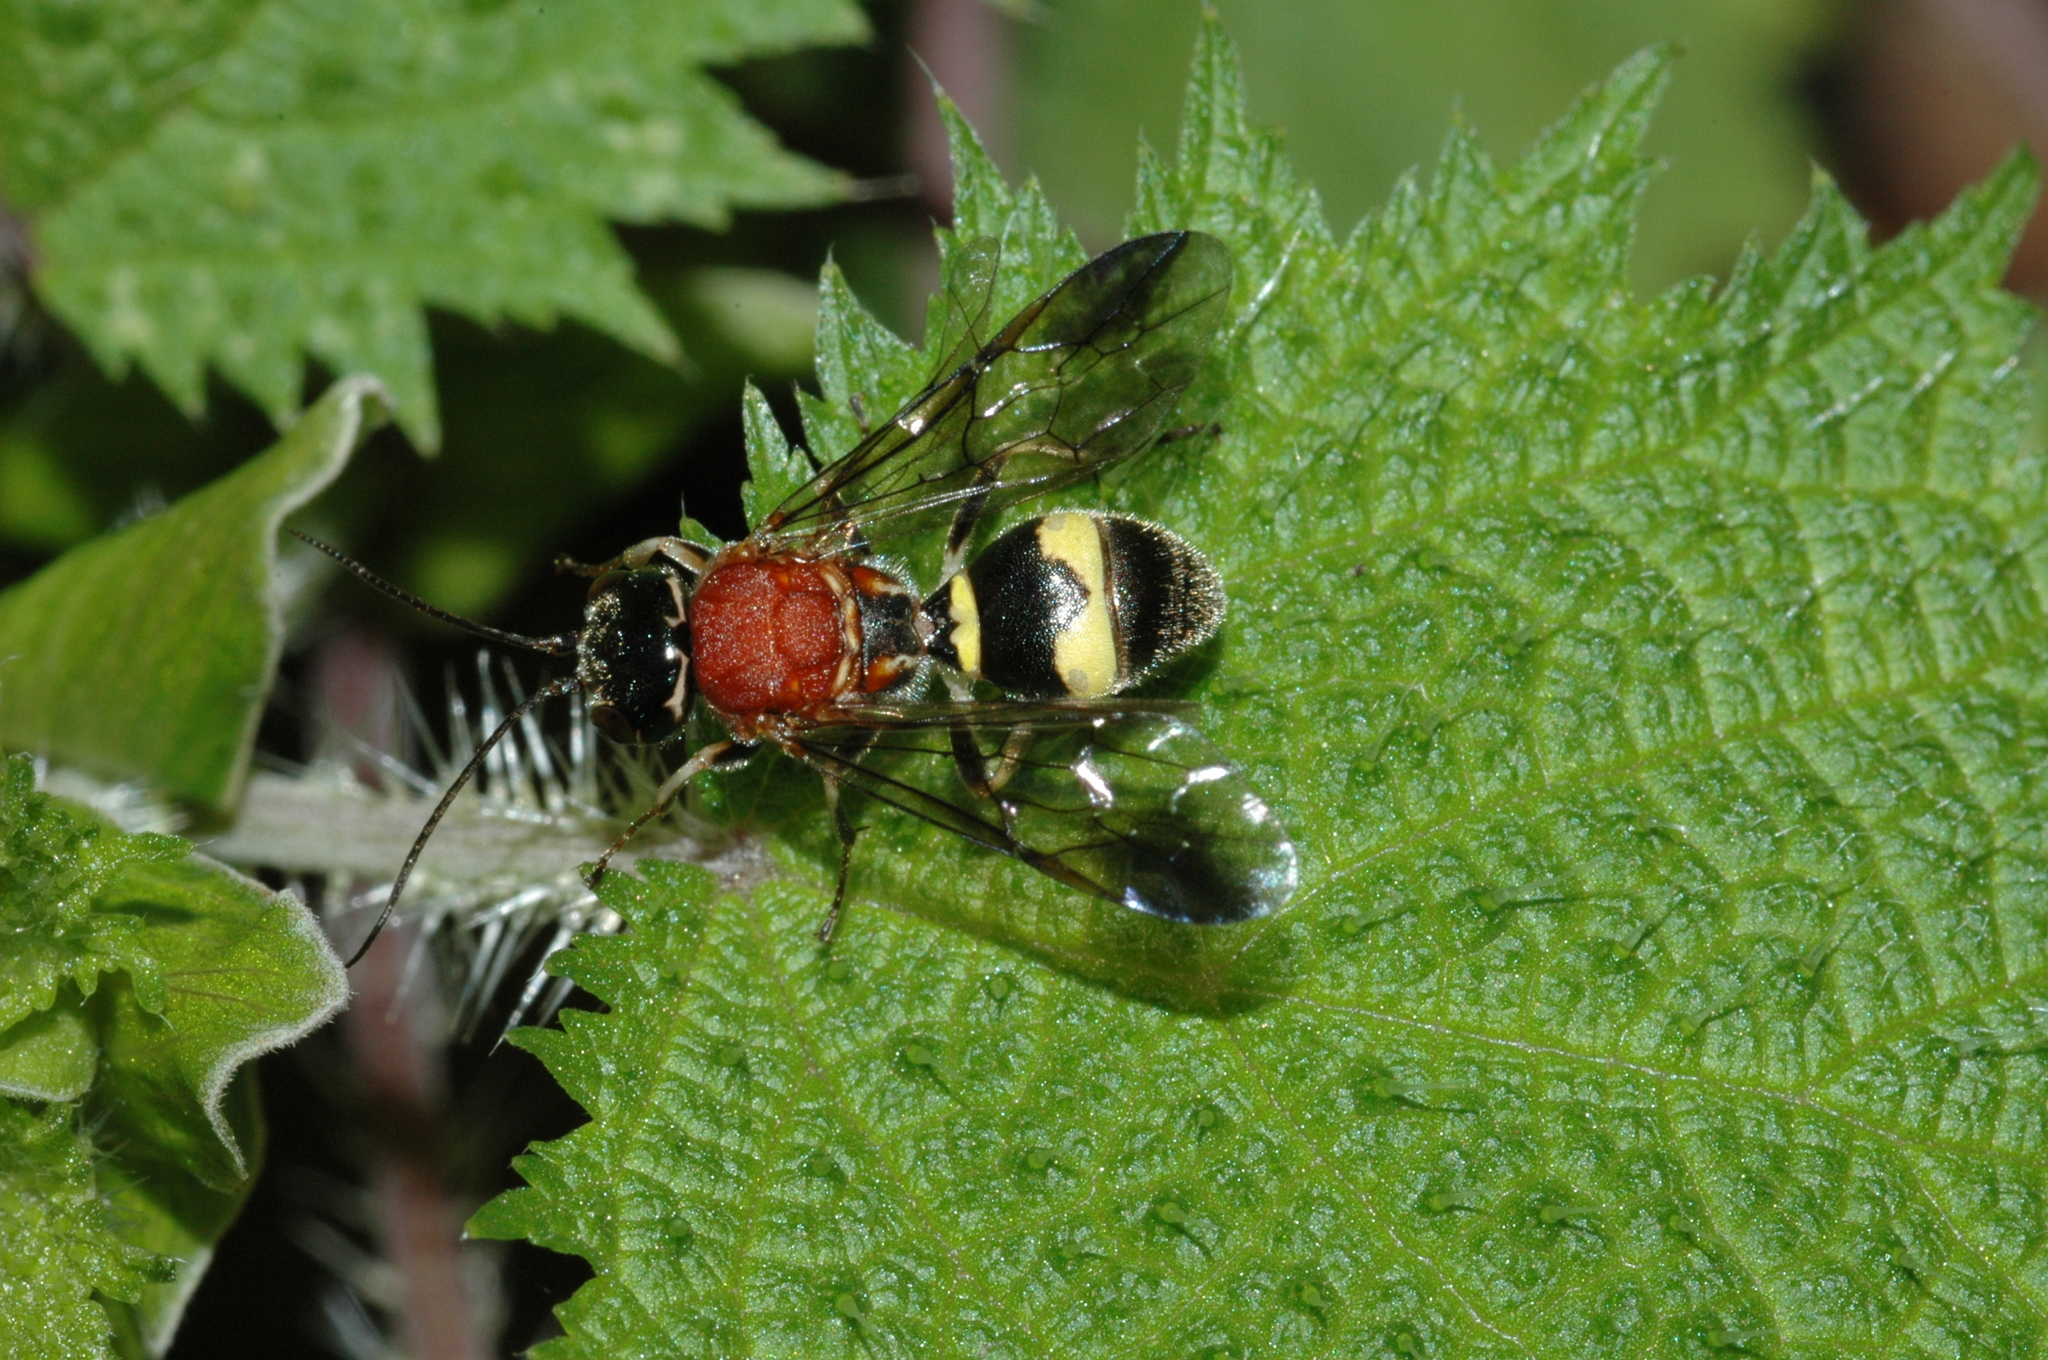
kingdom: Animalia
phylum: Arthropoda
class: Insecta
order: Hymenoptera
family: Trigonalidae
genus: Taeniogonalos
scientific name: Taeniogonalos fasciata
